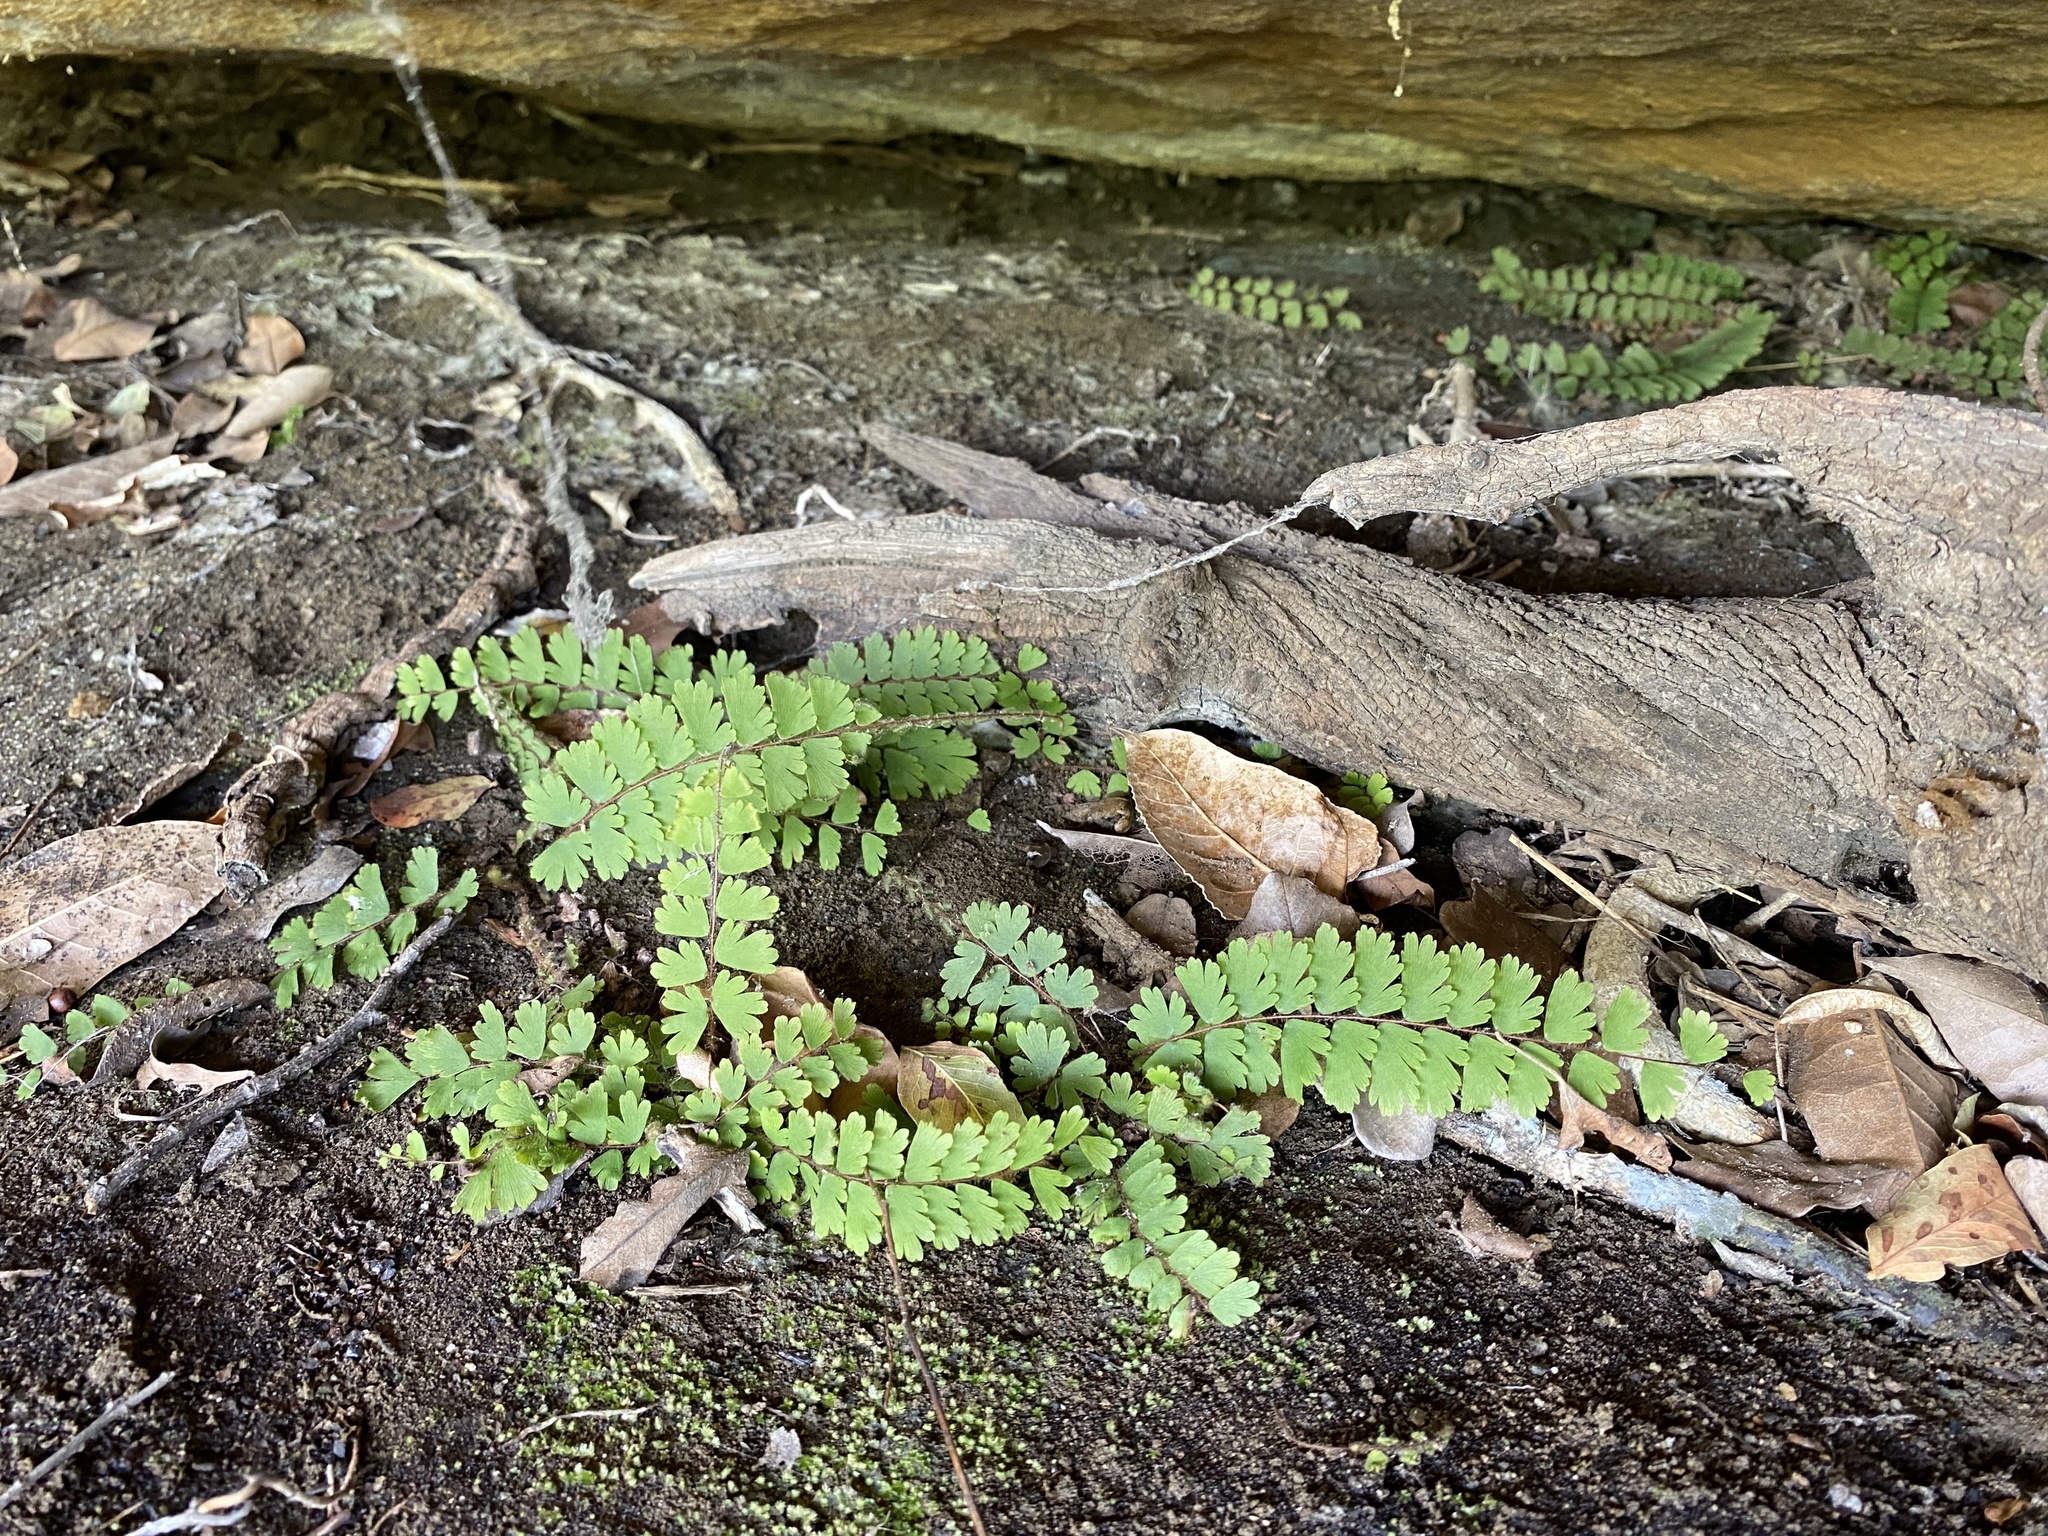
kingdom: Plantae
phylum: Tracheophyta
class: Polypodiopsida
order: Polypodiales
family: Pteridaceae
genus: Adiantum
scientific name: Adiantum incisum
